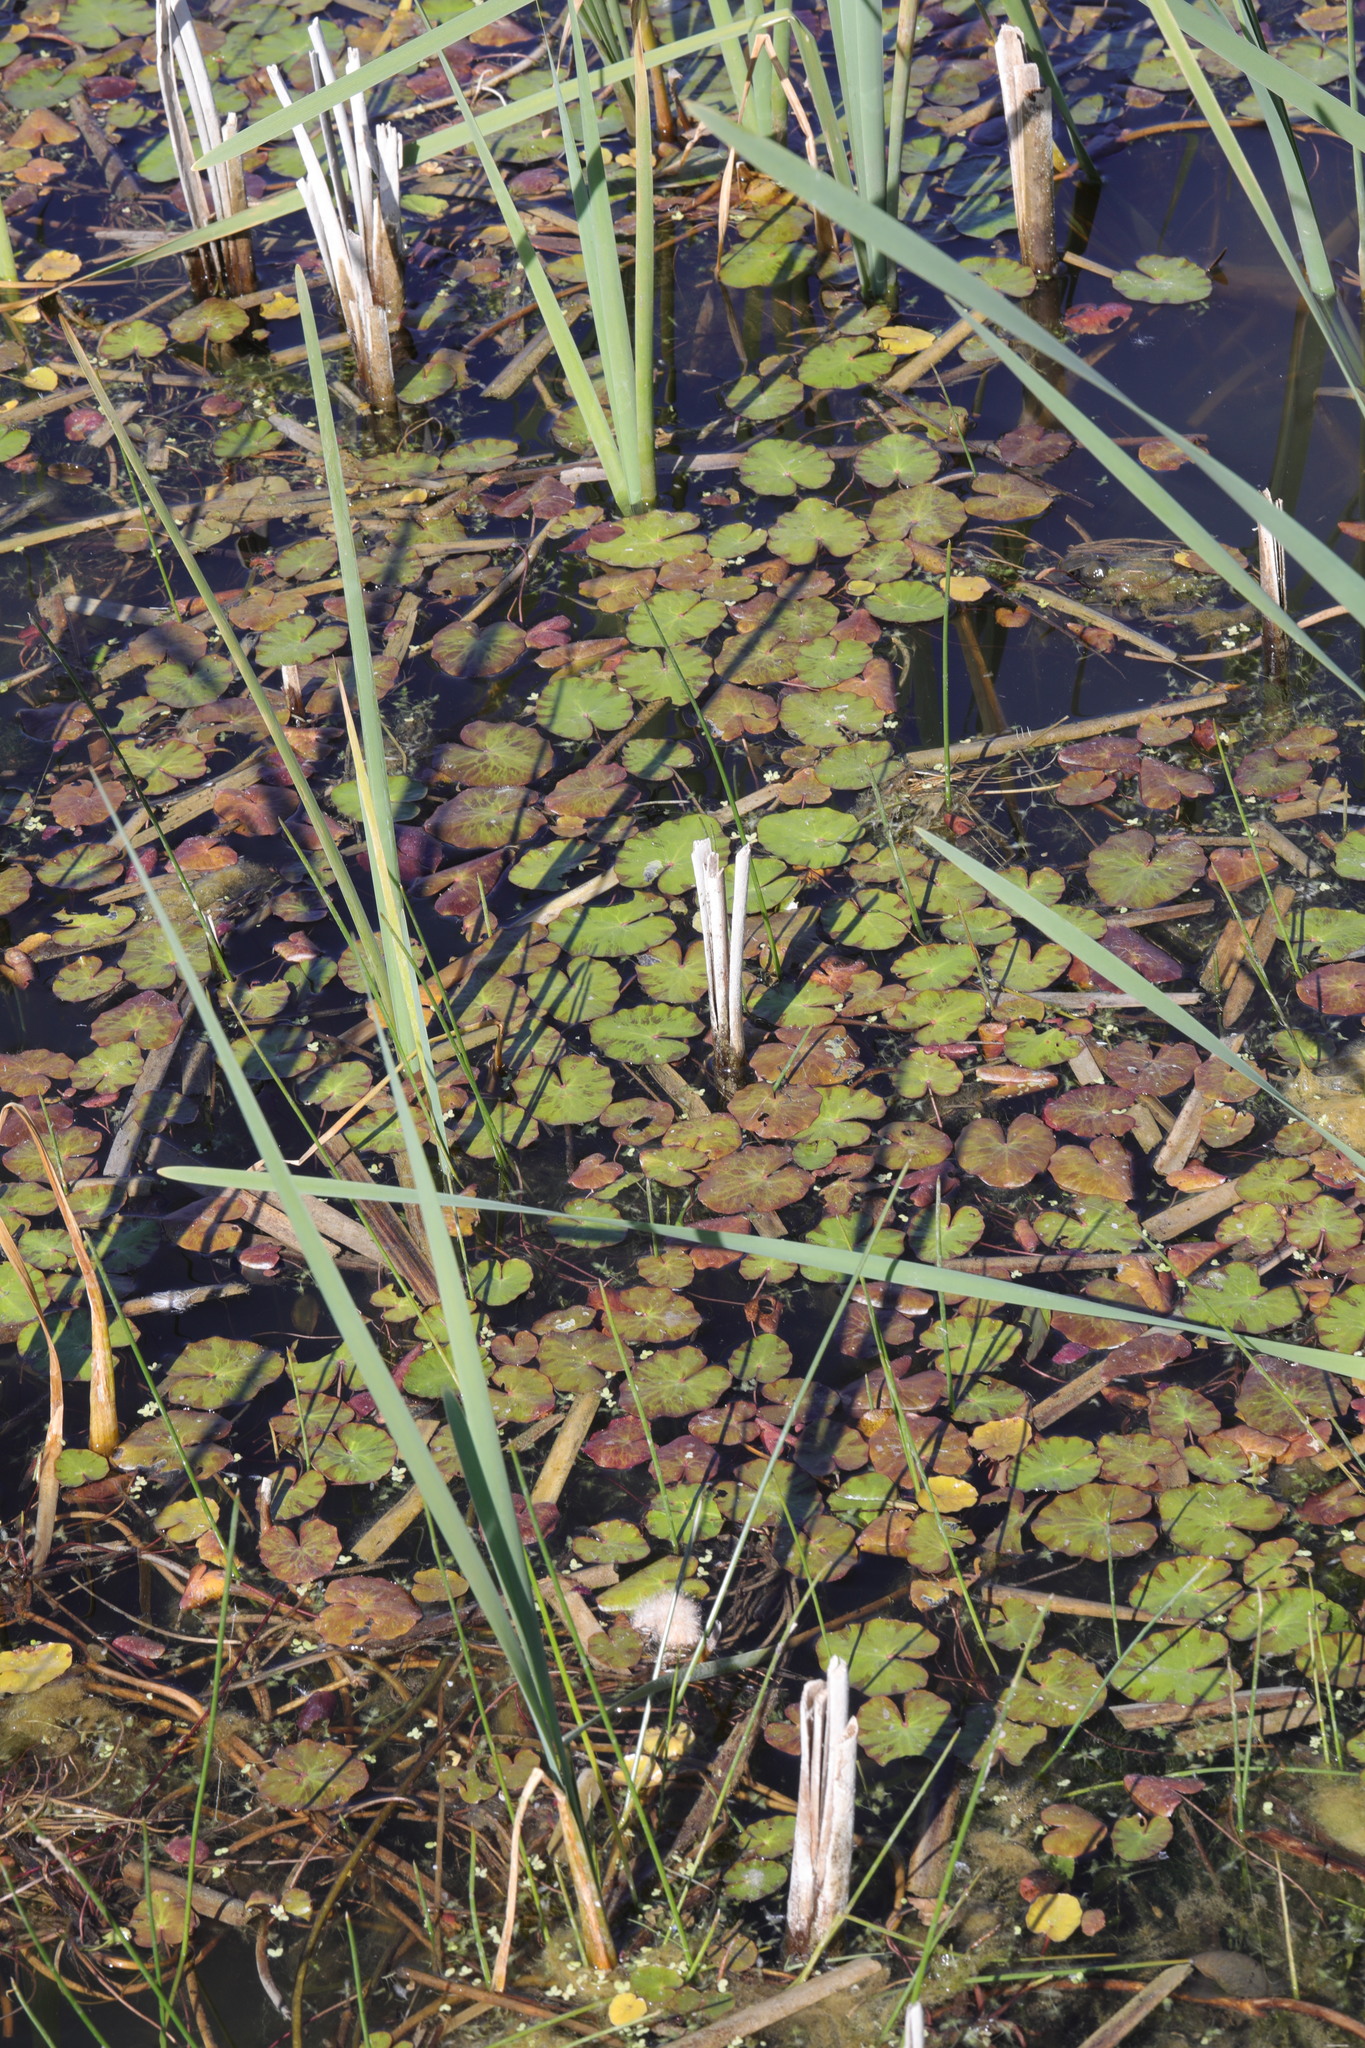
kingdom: Plantae
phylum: Tracheophyta
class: Magnoliopsida
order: Asterales
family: Menyanthaceae
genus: Nymphoides
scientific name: Nymphoides peltata
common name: Fringed water-lily
